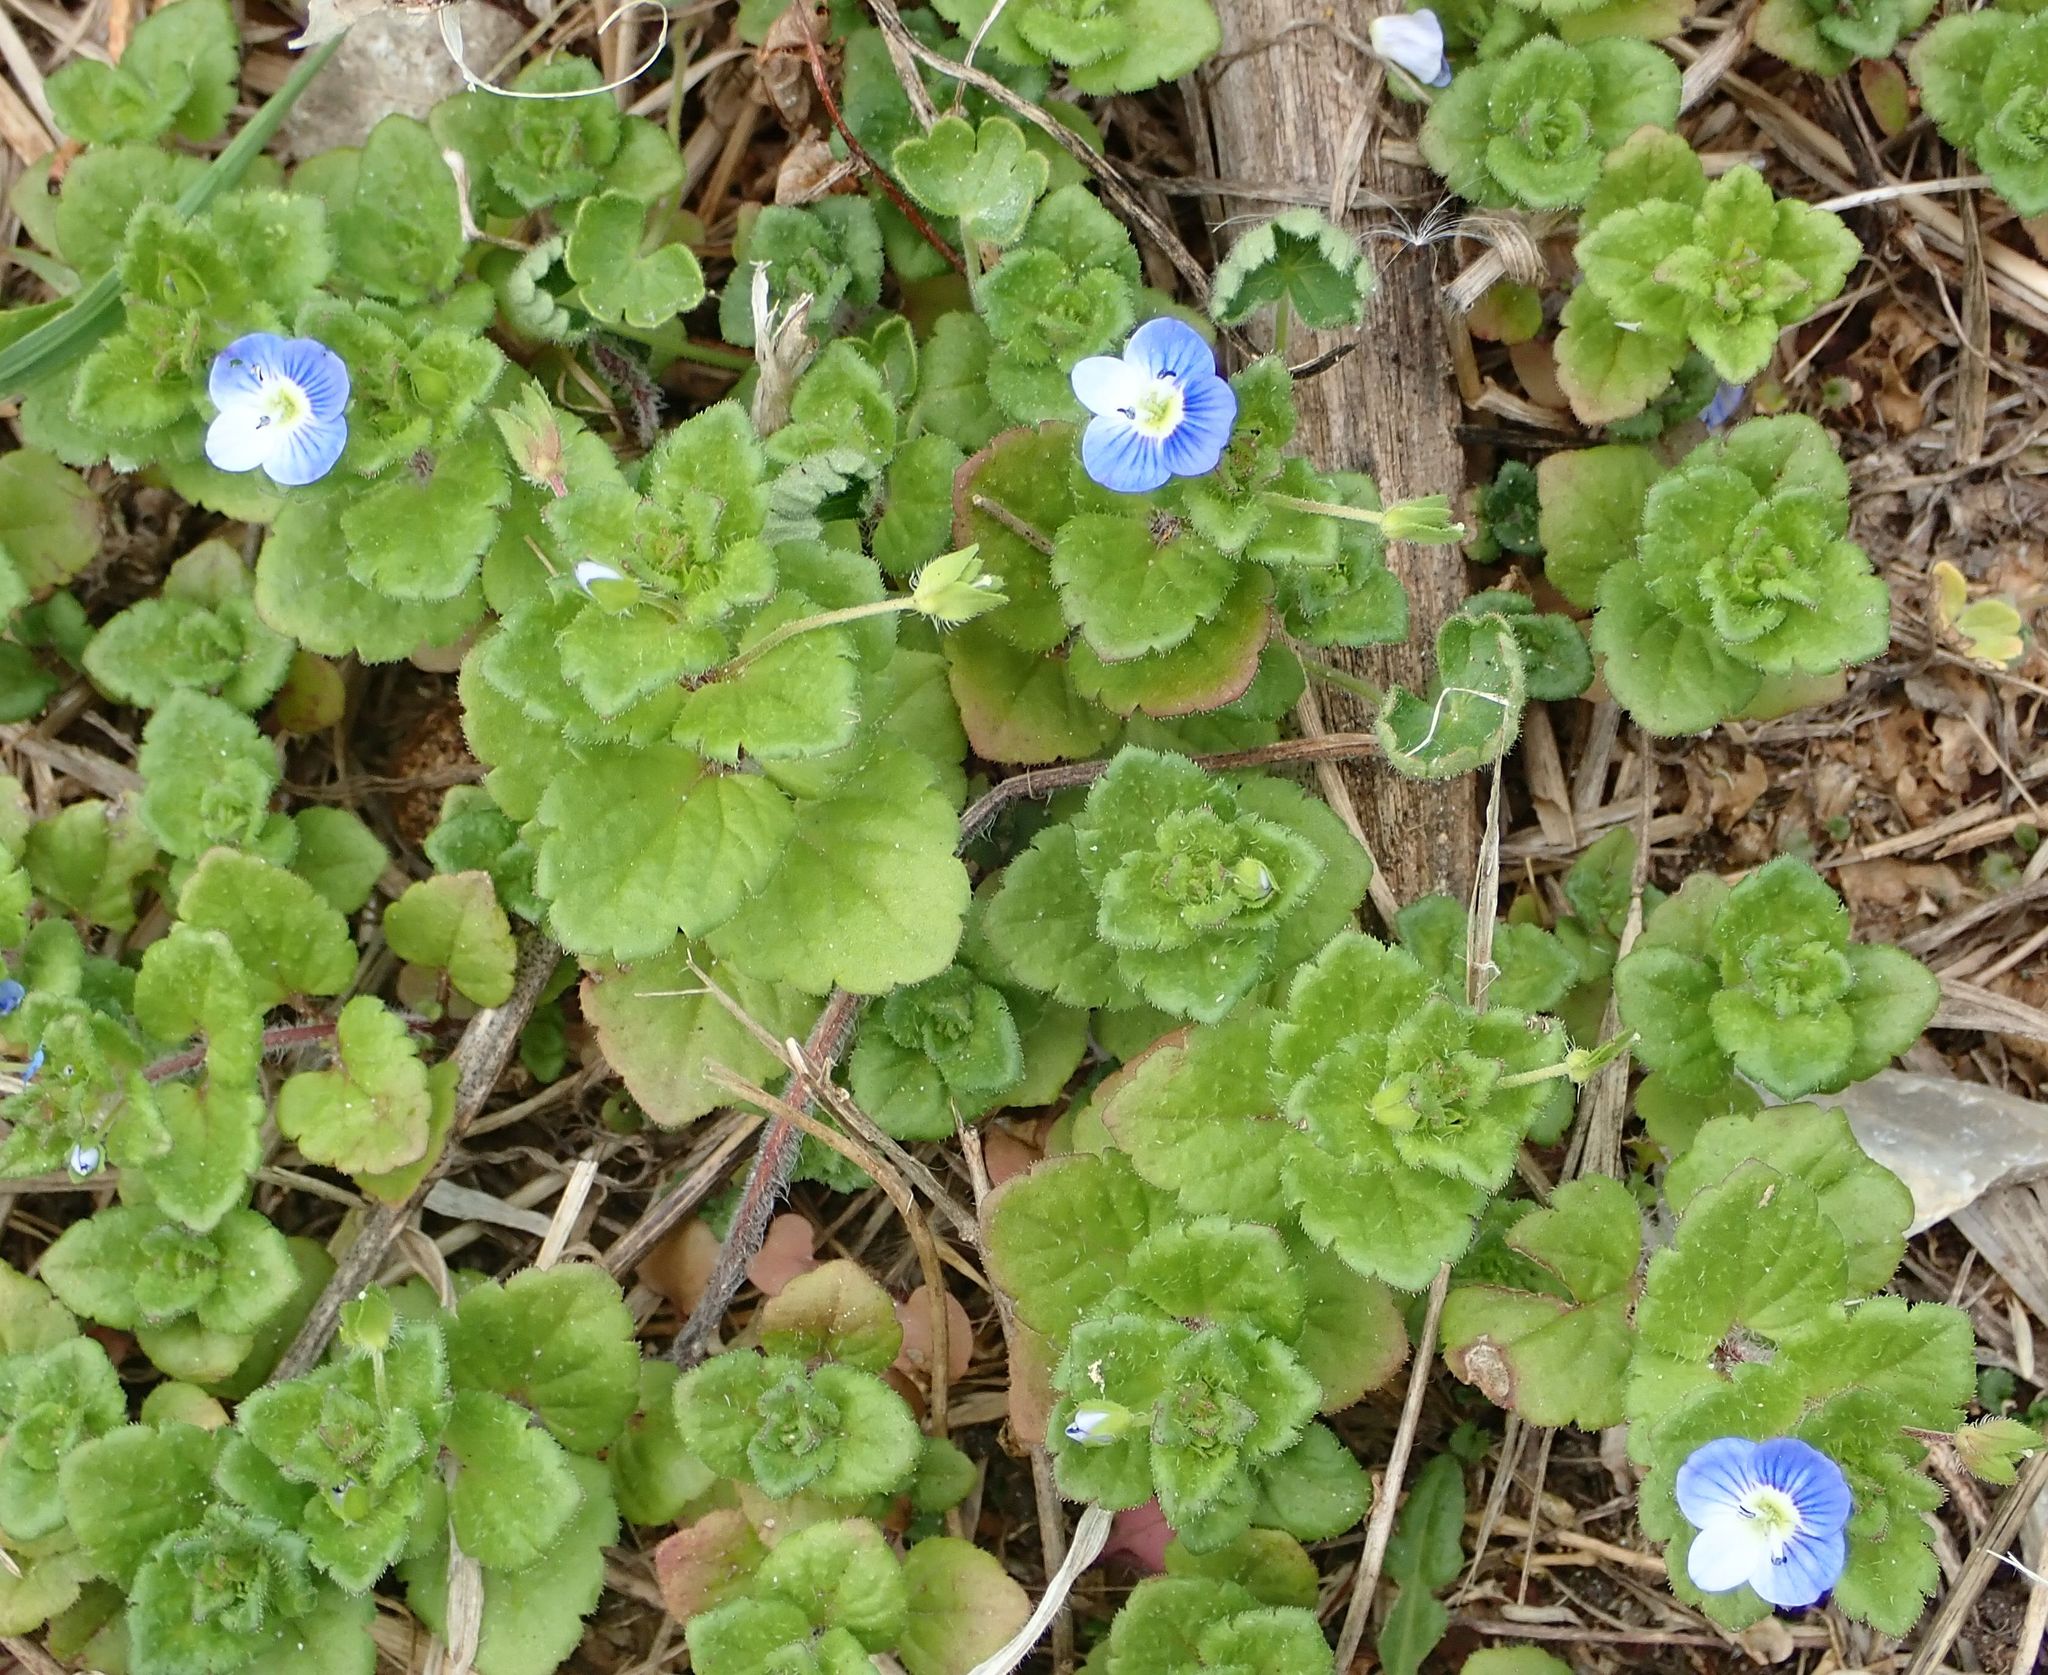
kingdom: Plantae
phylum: Tracheophyta
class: Magnoliopsida
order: Lamiales
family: Plantaginaceae
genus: Veronica
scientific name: Veronica persica
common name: Common field-speedwell
